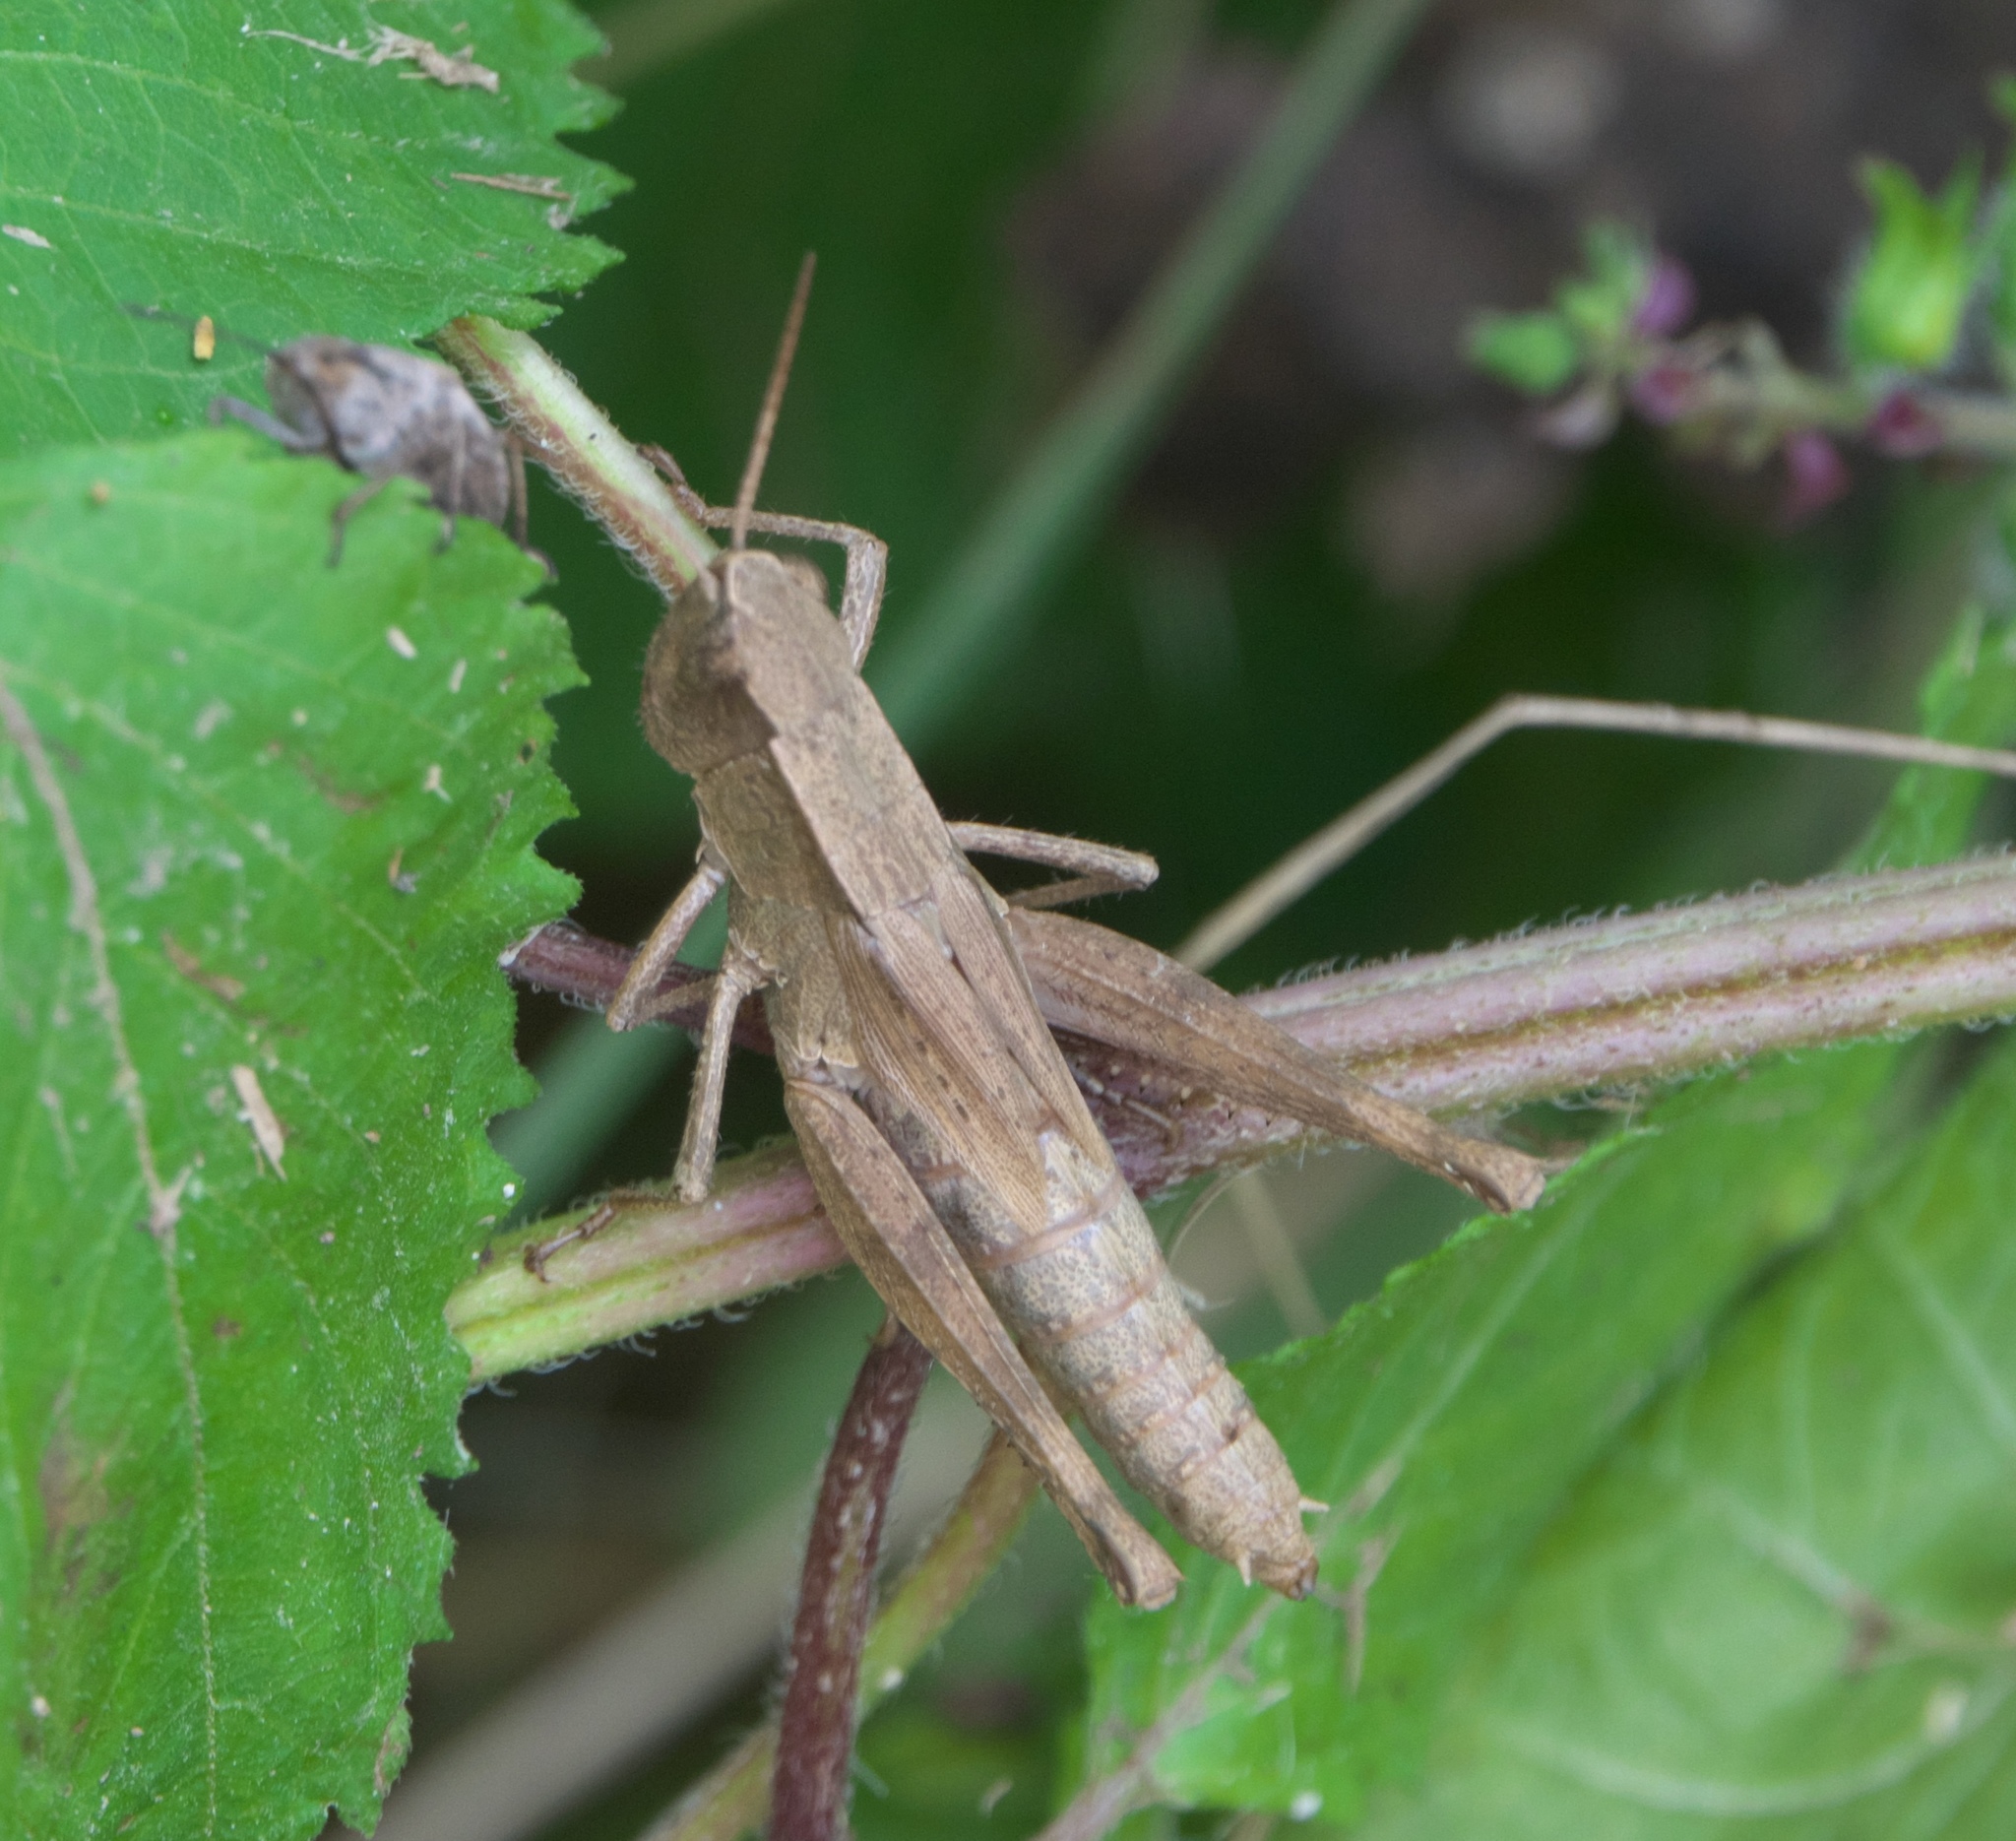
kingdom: Animalia
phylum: Arthropoda
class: Insecta
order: Orthoptera
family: Acrididae
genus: Dichromorpha
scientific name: Dichromorpha viridis
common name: Short-winged green grasshopper
